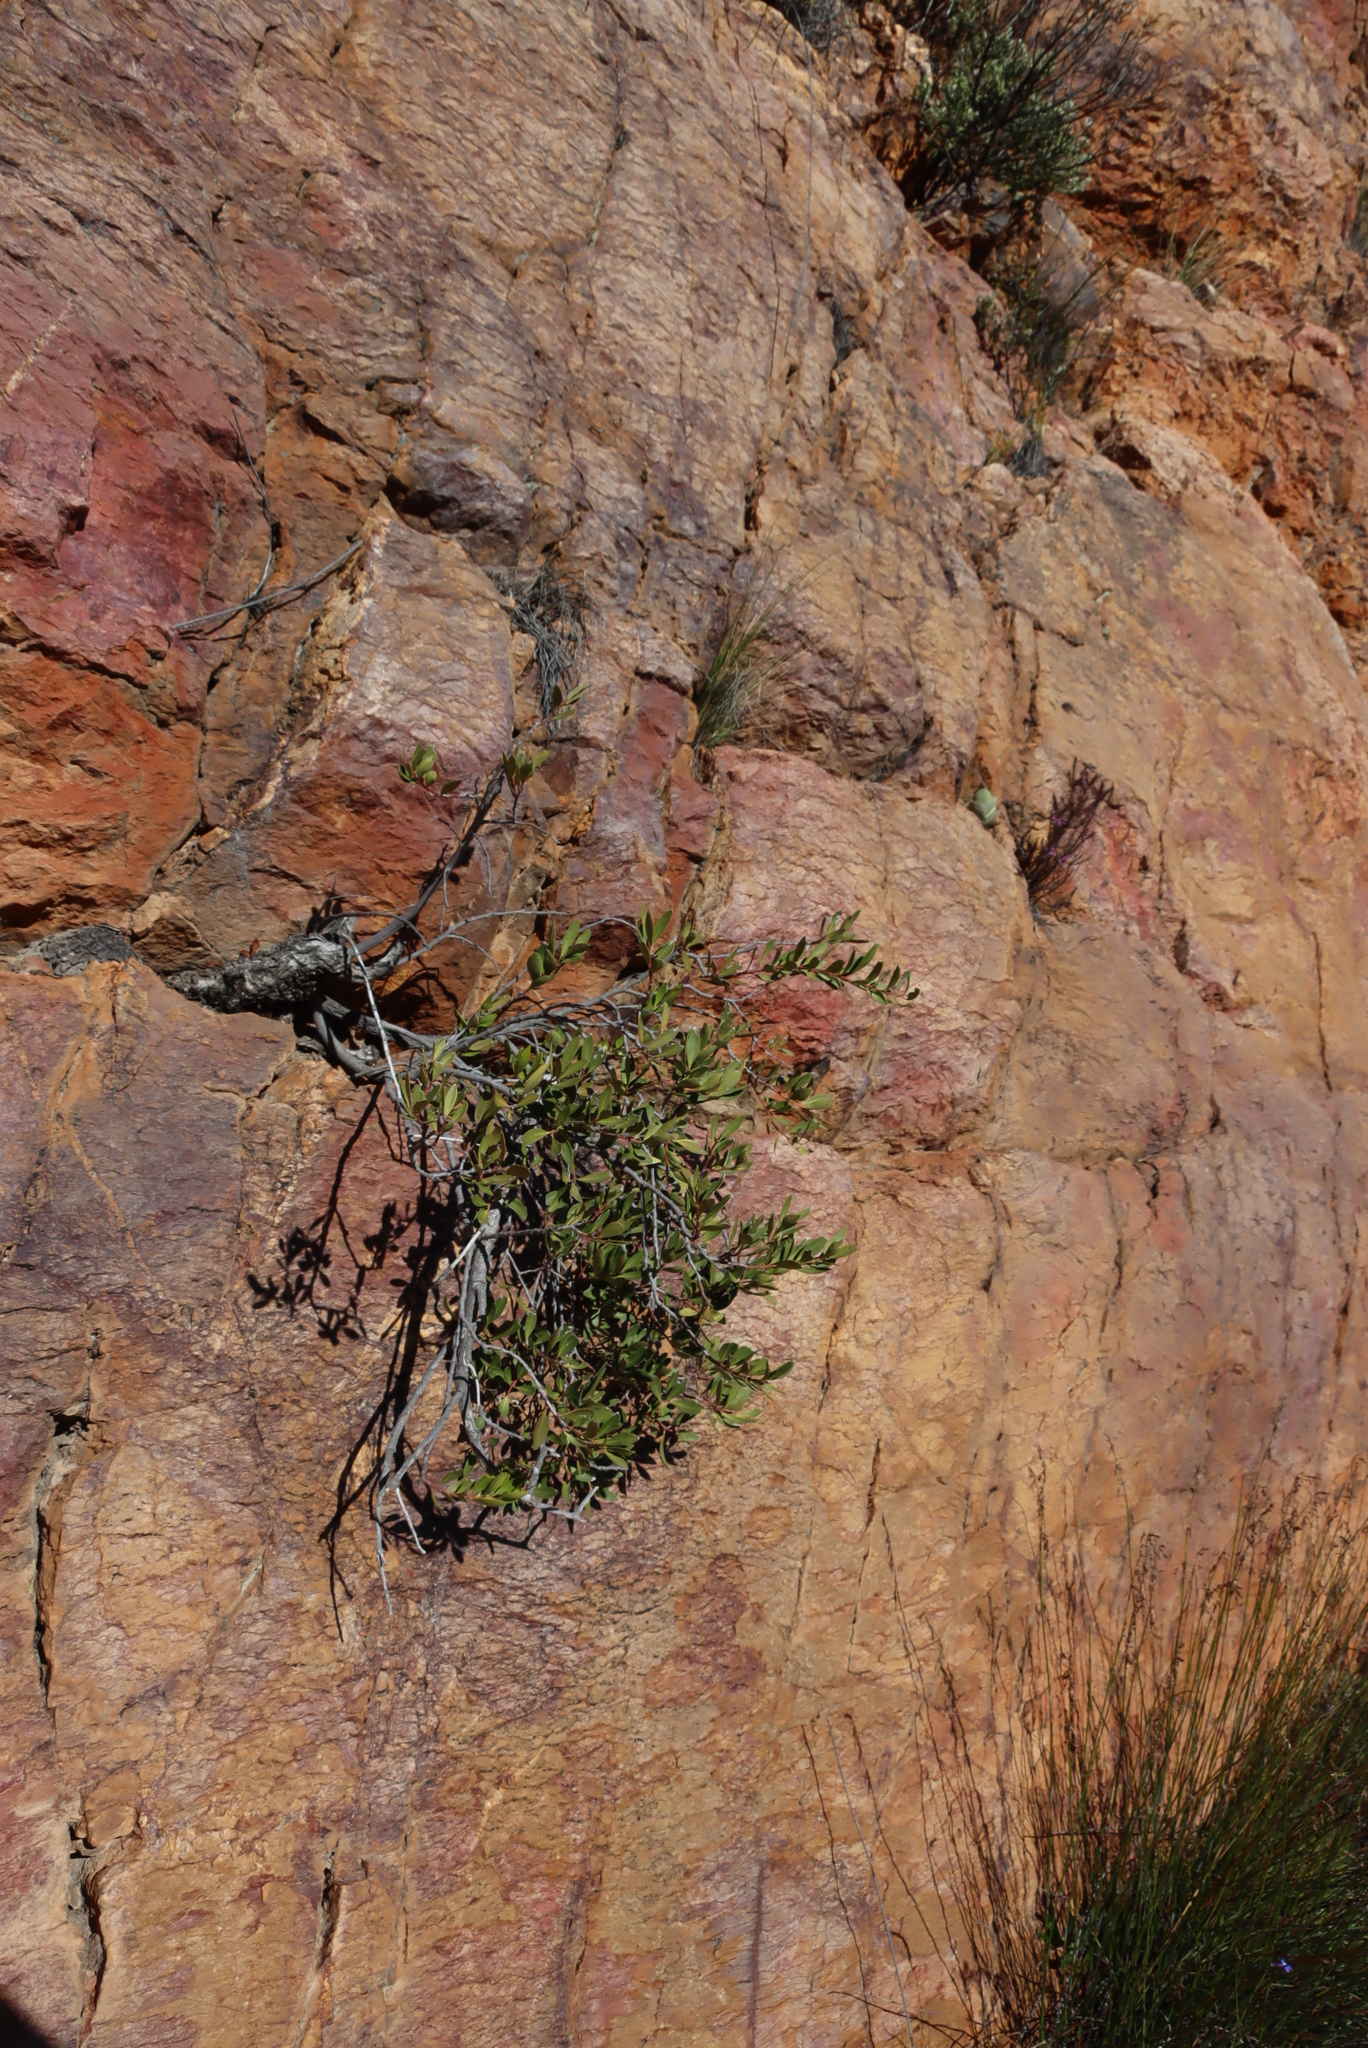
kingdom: Plantae
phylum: Tracheophyta
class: Magnoliopsida
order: Celastrales
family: Celastraceae
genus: Gymnosporia
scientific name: Gymnosporia laurina
